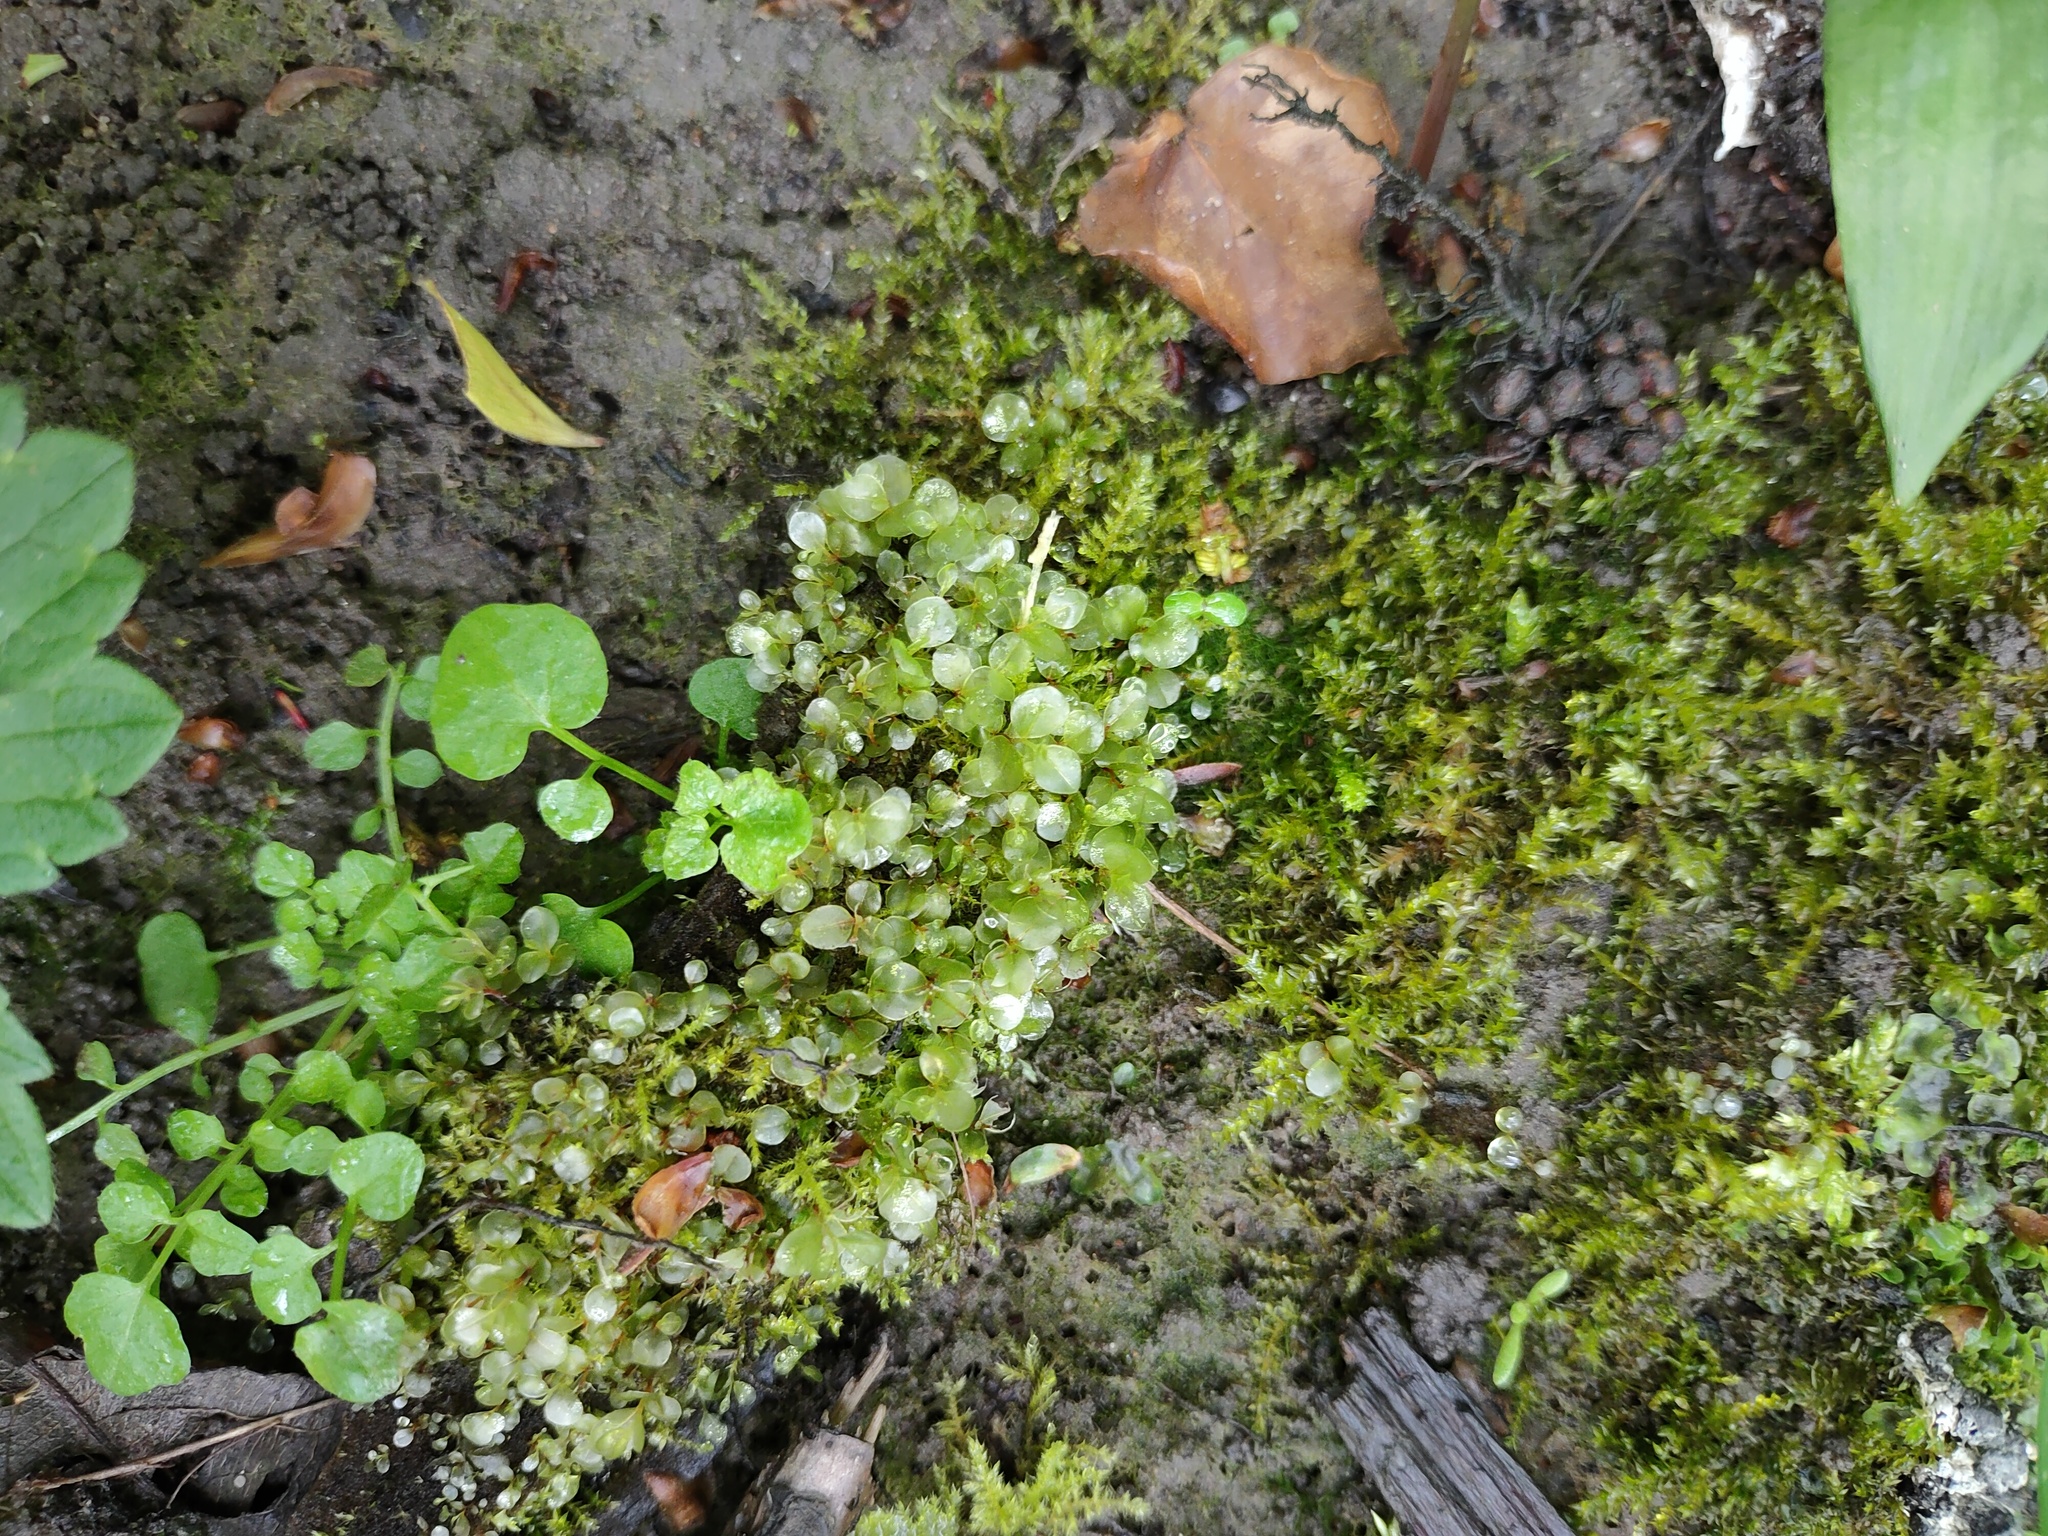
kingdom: Plantae
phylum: Bryophyta
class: Bryopsida
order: Bryales
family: Mniaceae
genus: Rhizomnium
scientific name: Rhizomnium punctatum
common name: Dotted leafy moss
